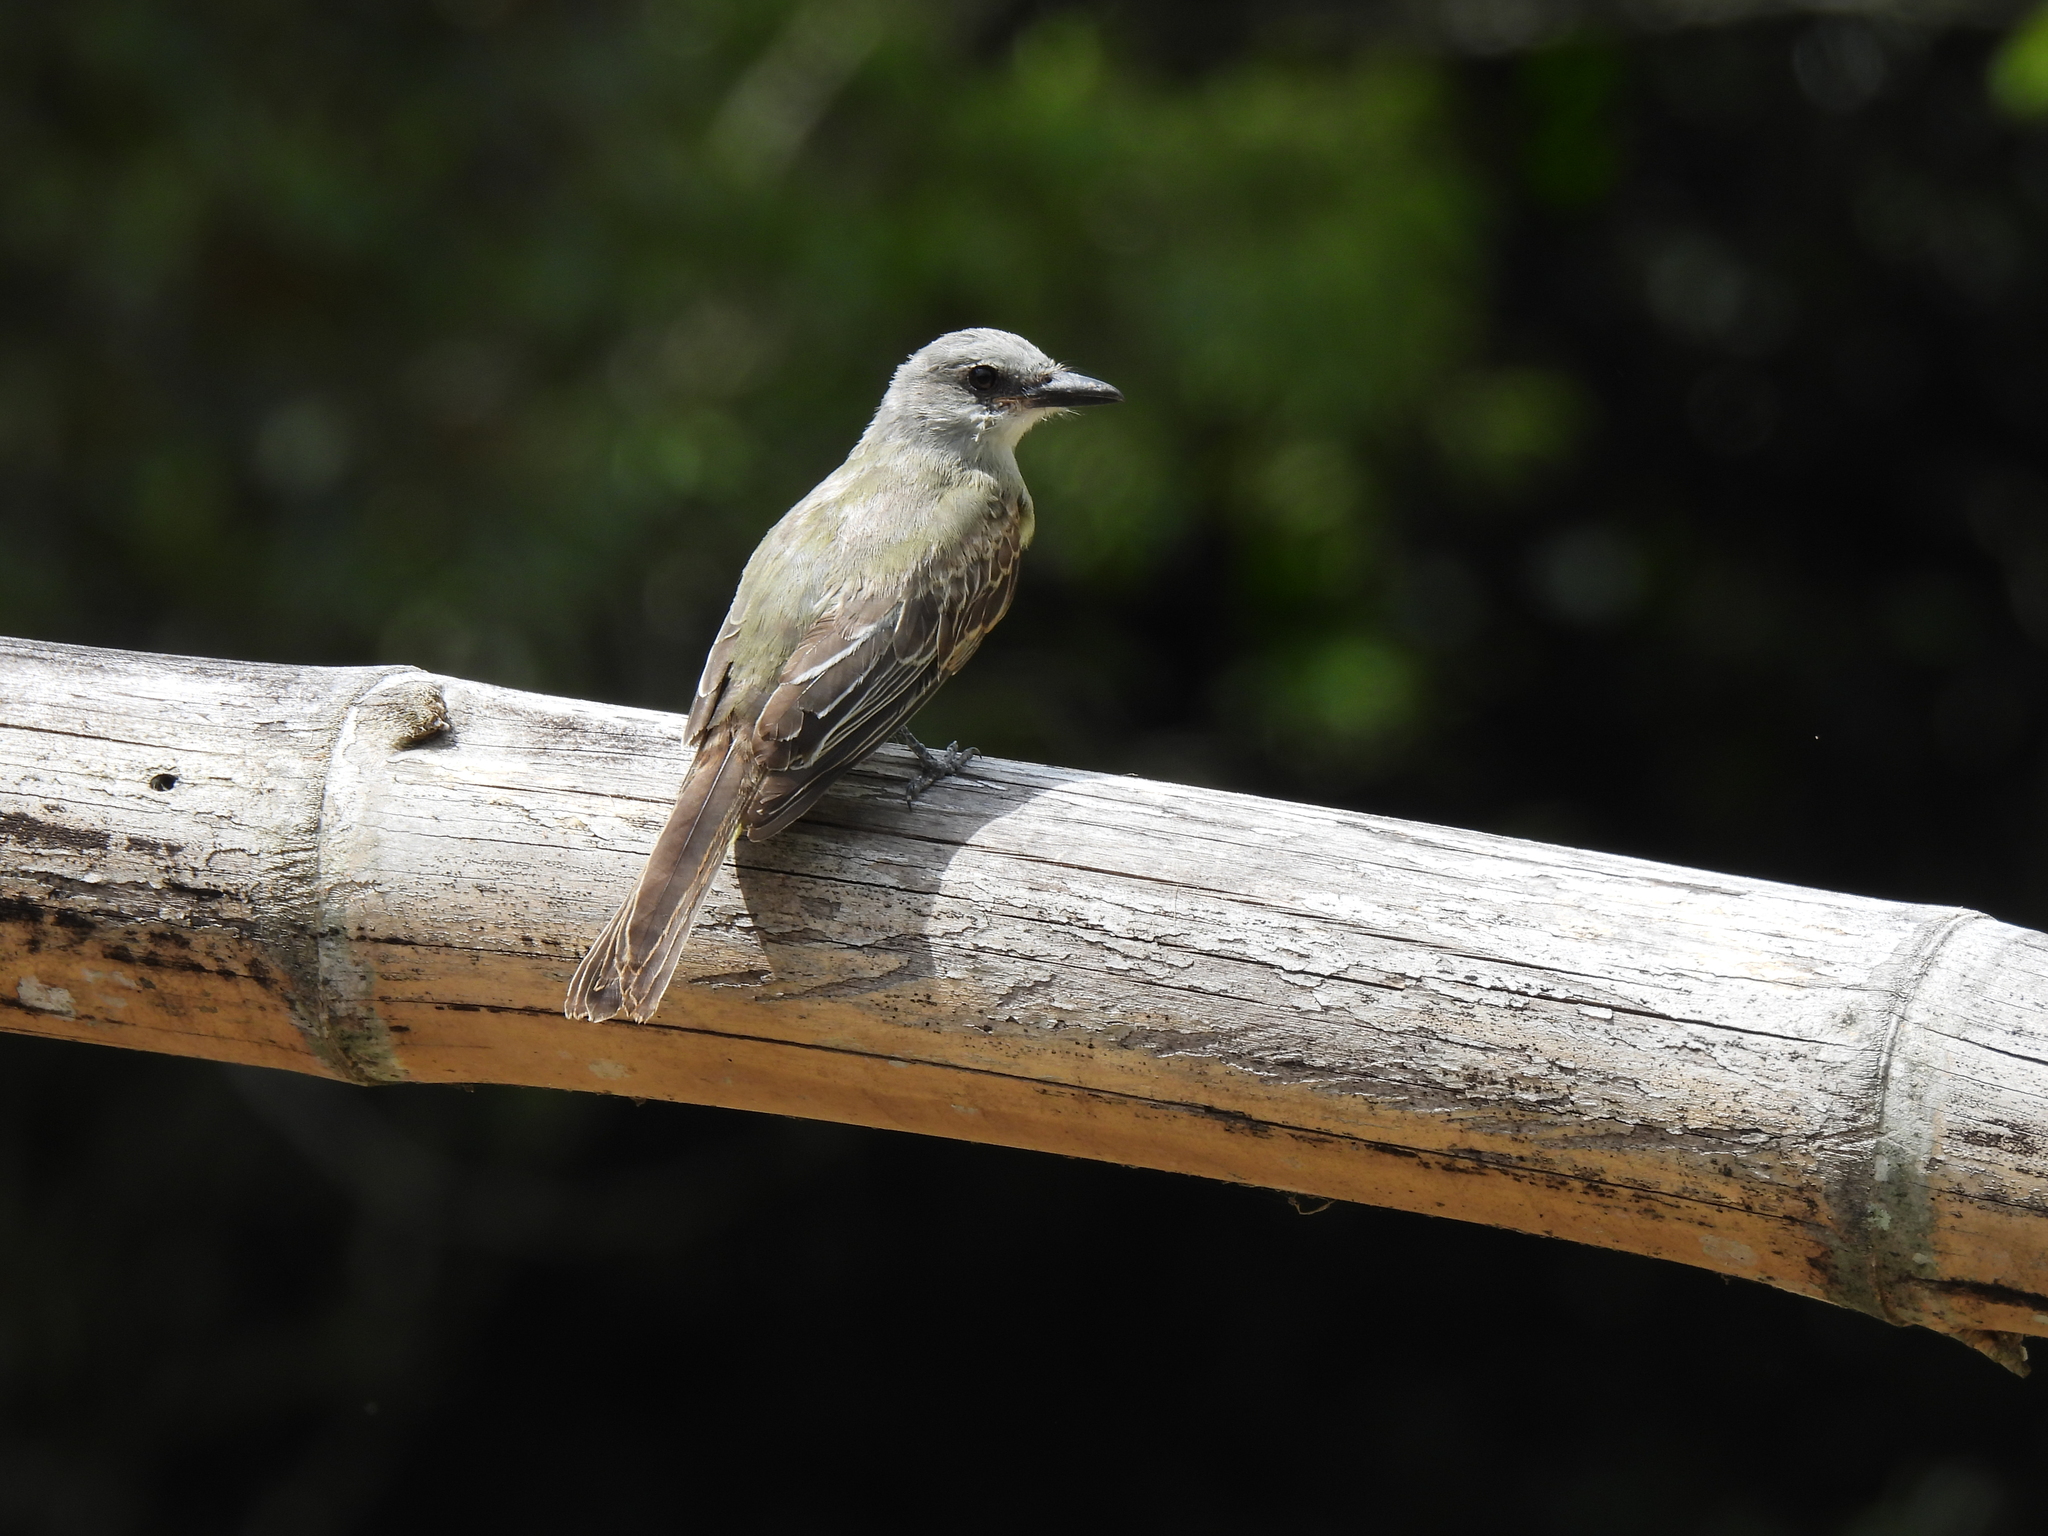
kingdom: Animalia
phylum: Chordata
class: Aves
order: Passeriformes
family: Tyrannidae
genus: Tyrannus
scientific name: Tyrannus melancholicus
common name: Tropical kingbird
